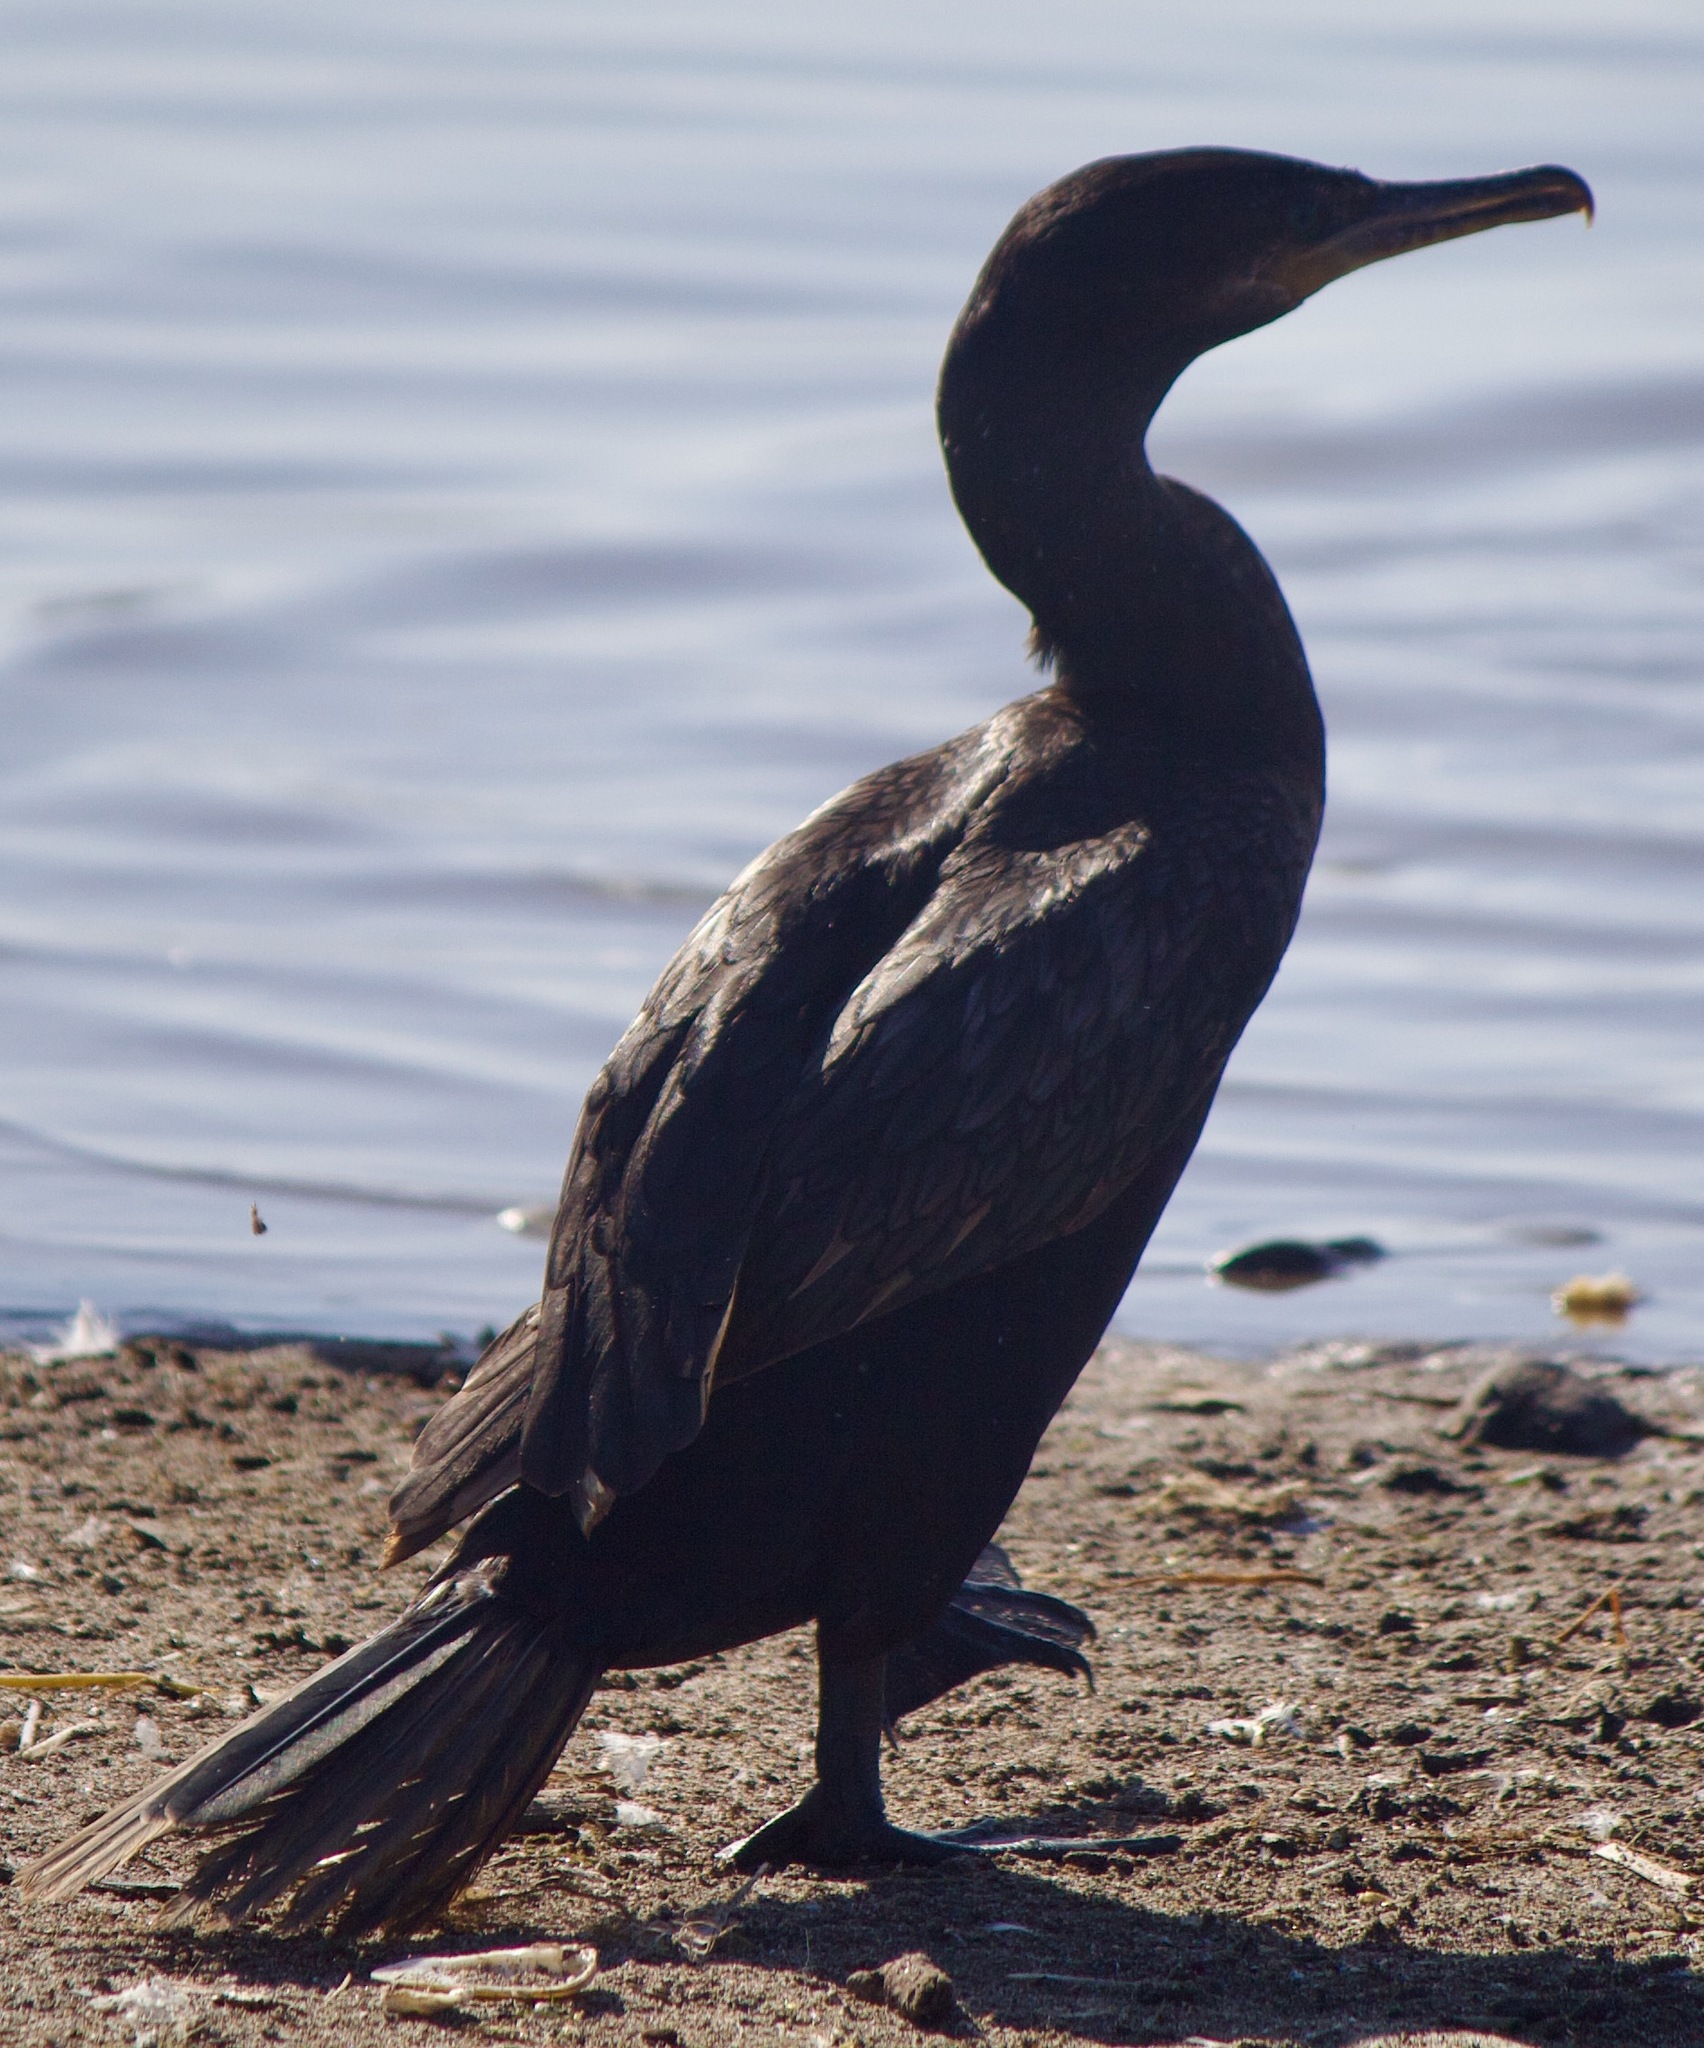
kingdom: Animalia
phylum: Chordata
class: Aves
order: Suliformes
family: Phalacrocoracidae
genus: Phalacrocorax
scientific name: Phalacrocorax brasilianus
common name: Neotropic cormorant
